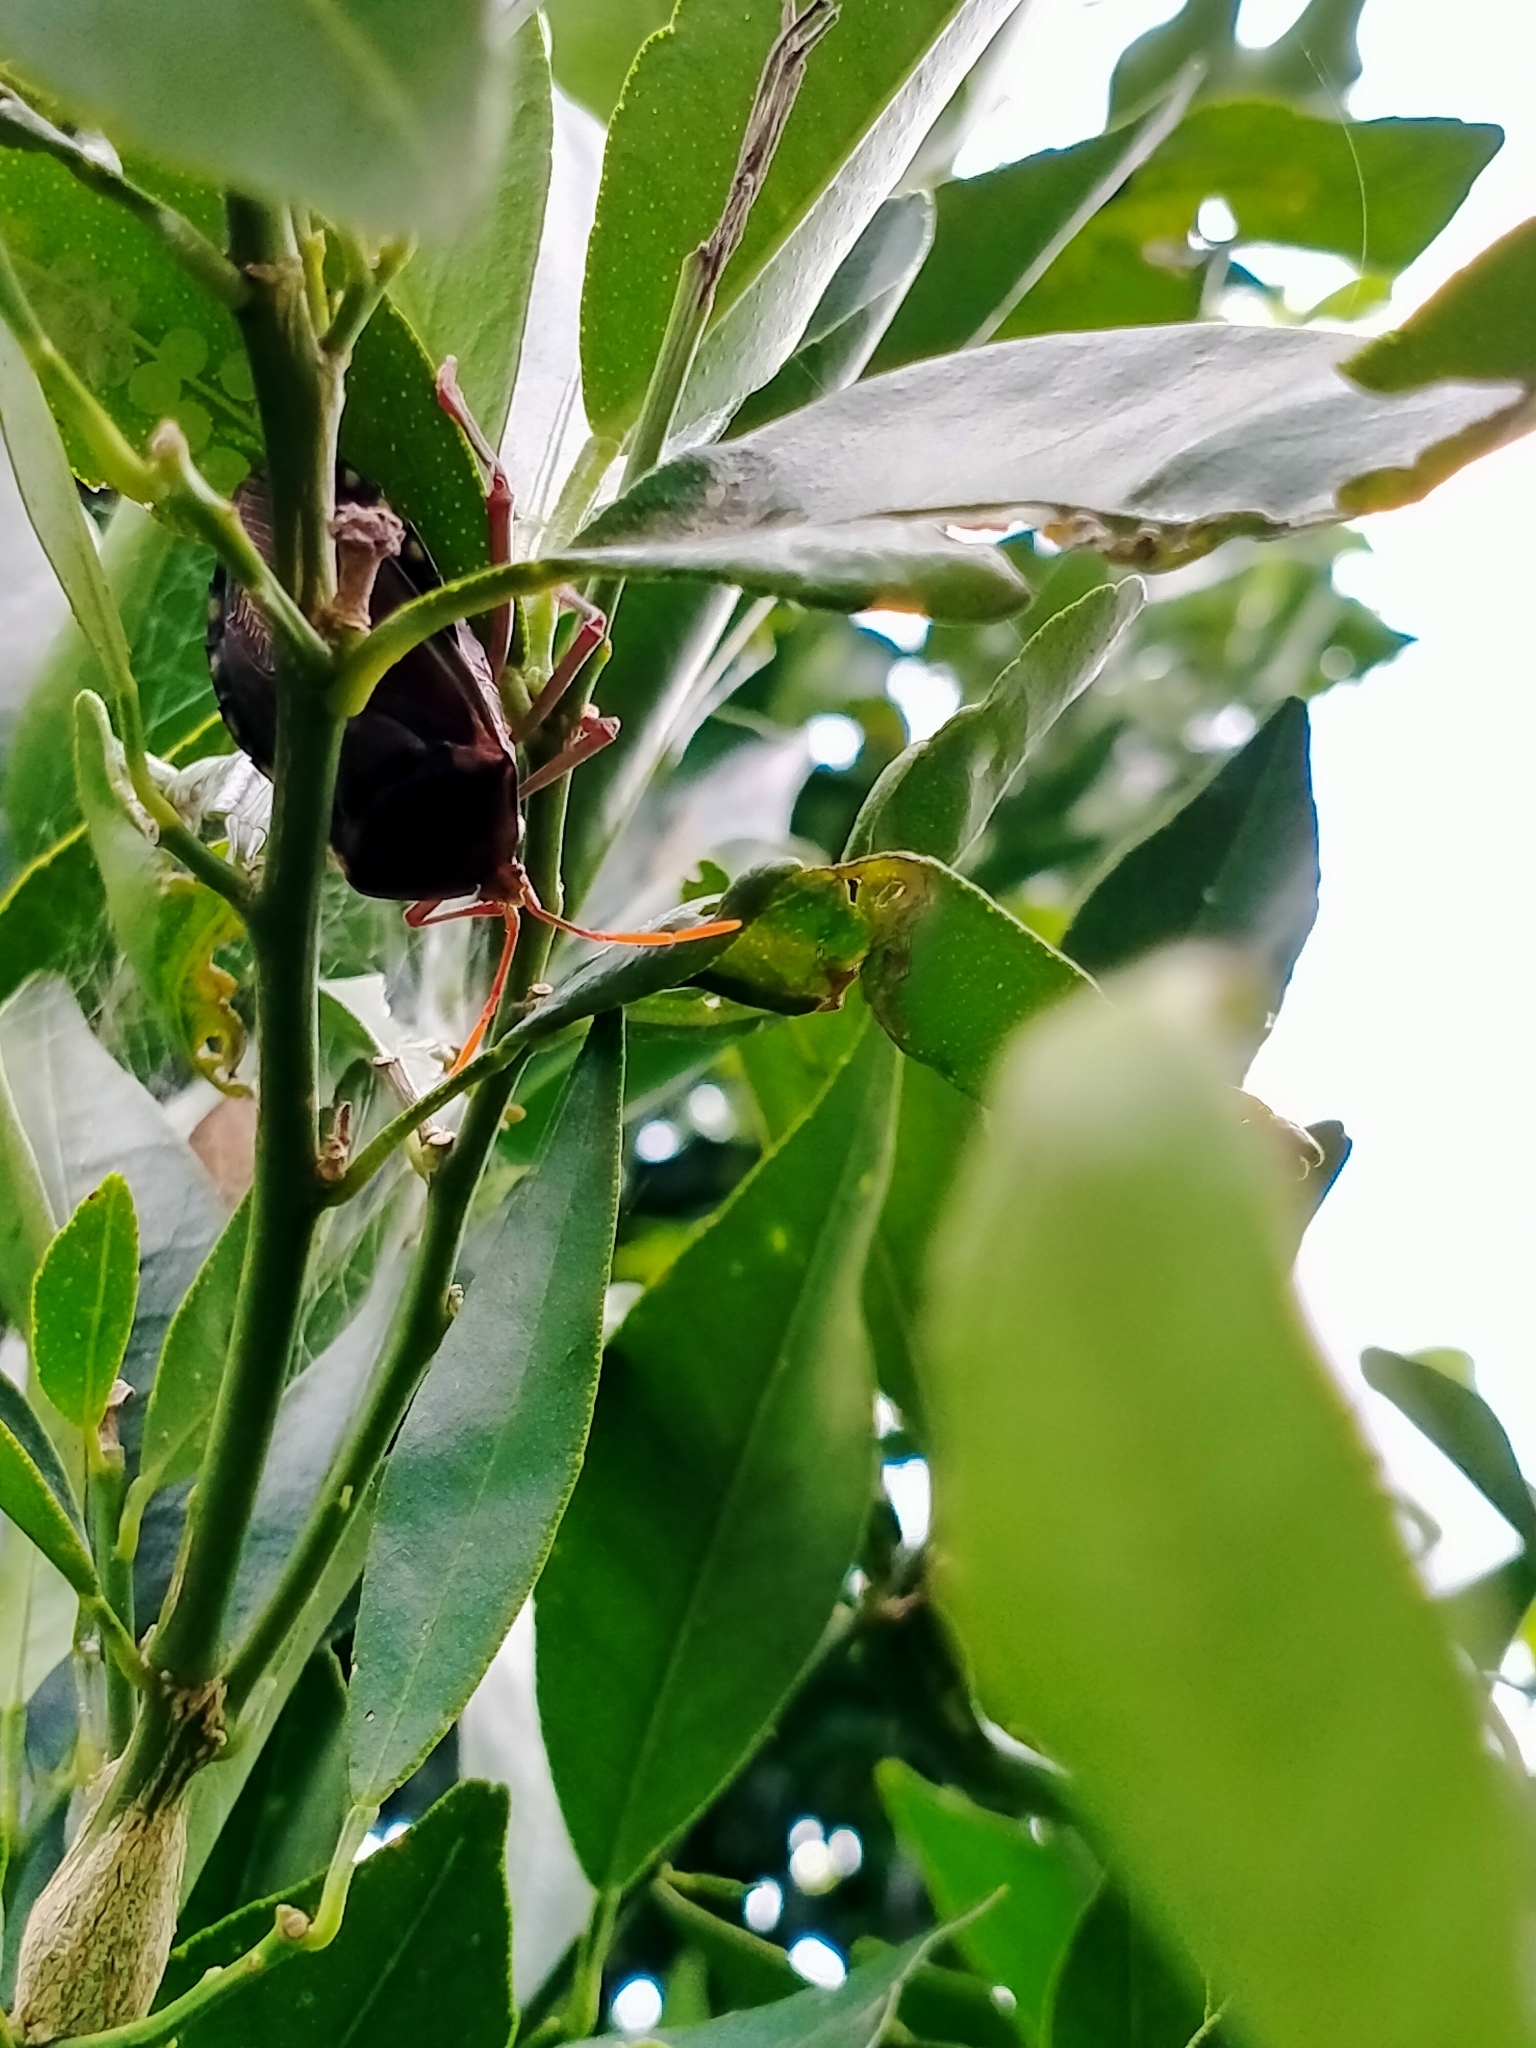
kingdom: Animalia
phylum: Arthropoda
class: Insecta
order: Hemiptera
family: Tessaratomidae
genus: Musgraveia
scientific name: Musgraveia sulciventris
